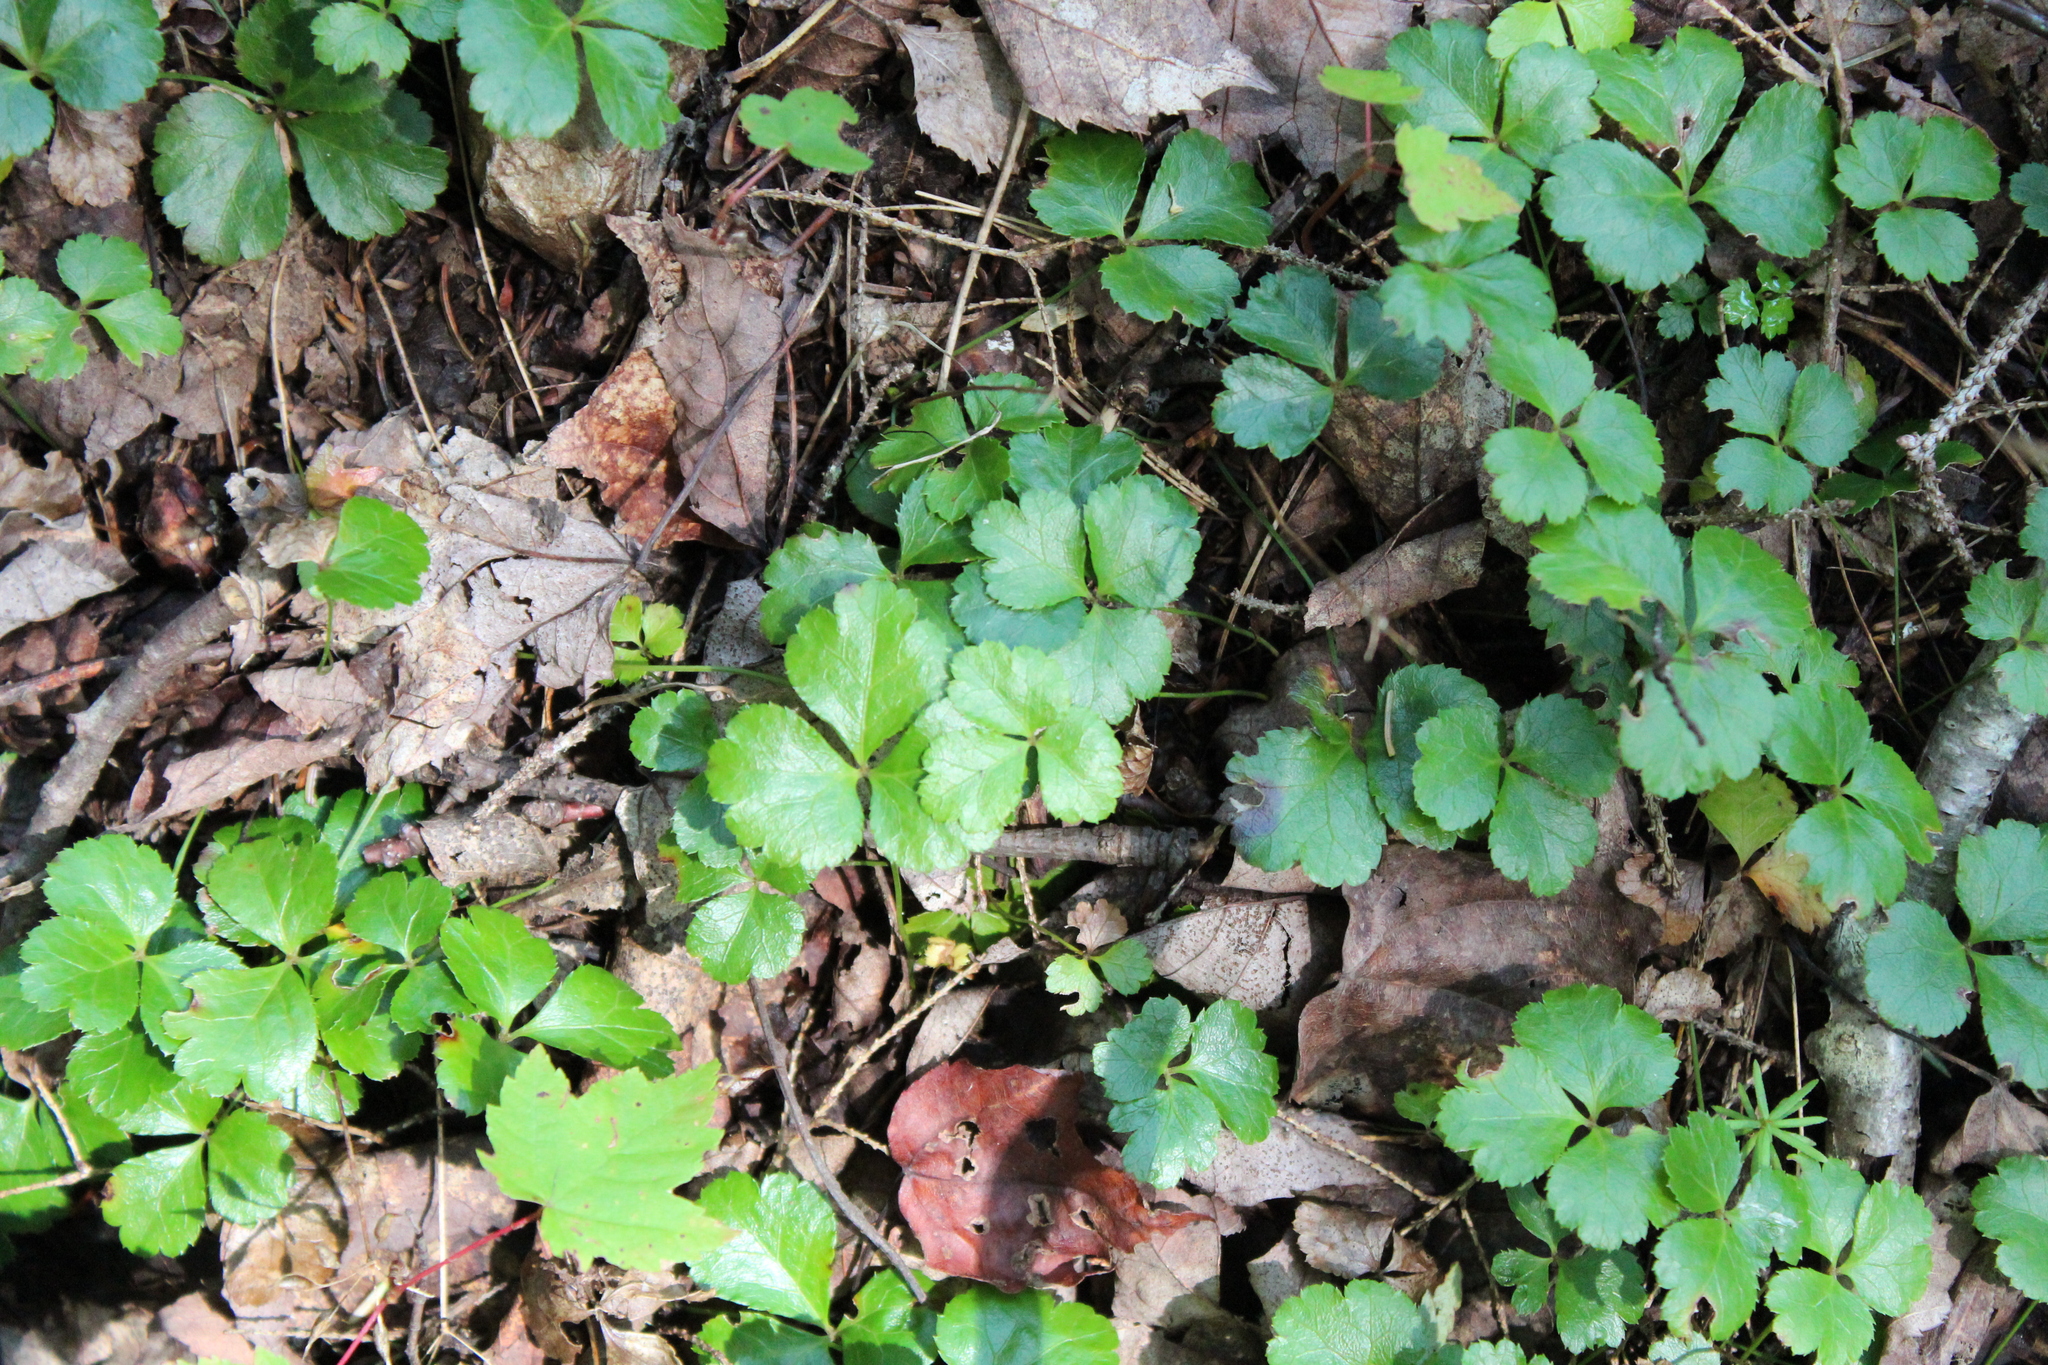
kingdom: Plantae
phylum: Tracheophyta
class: Magnoliopsida
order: Ranunculales
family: Ranunculaceae
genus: Coptis
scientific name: Coptis trifolia
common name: Canker-root
